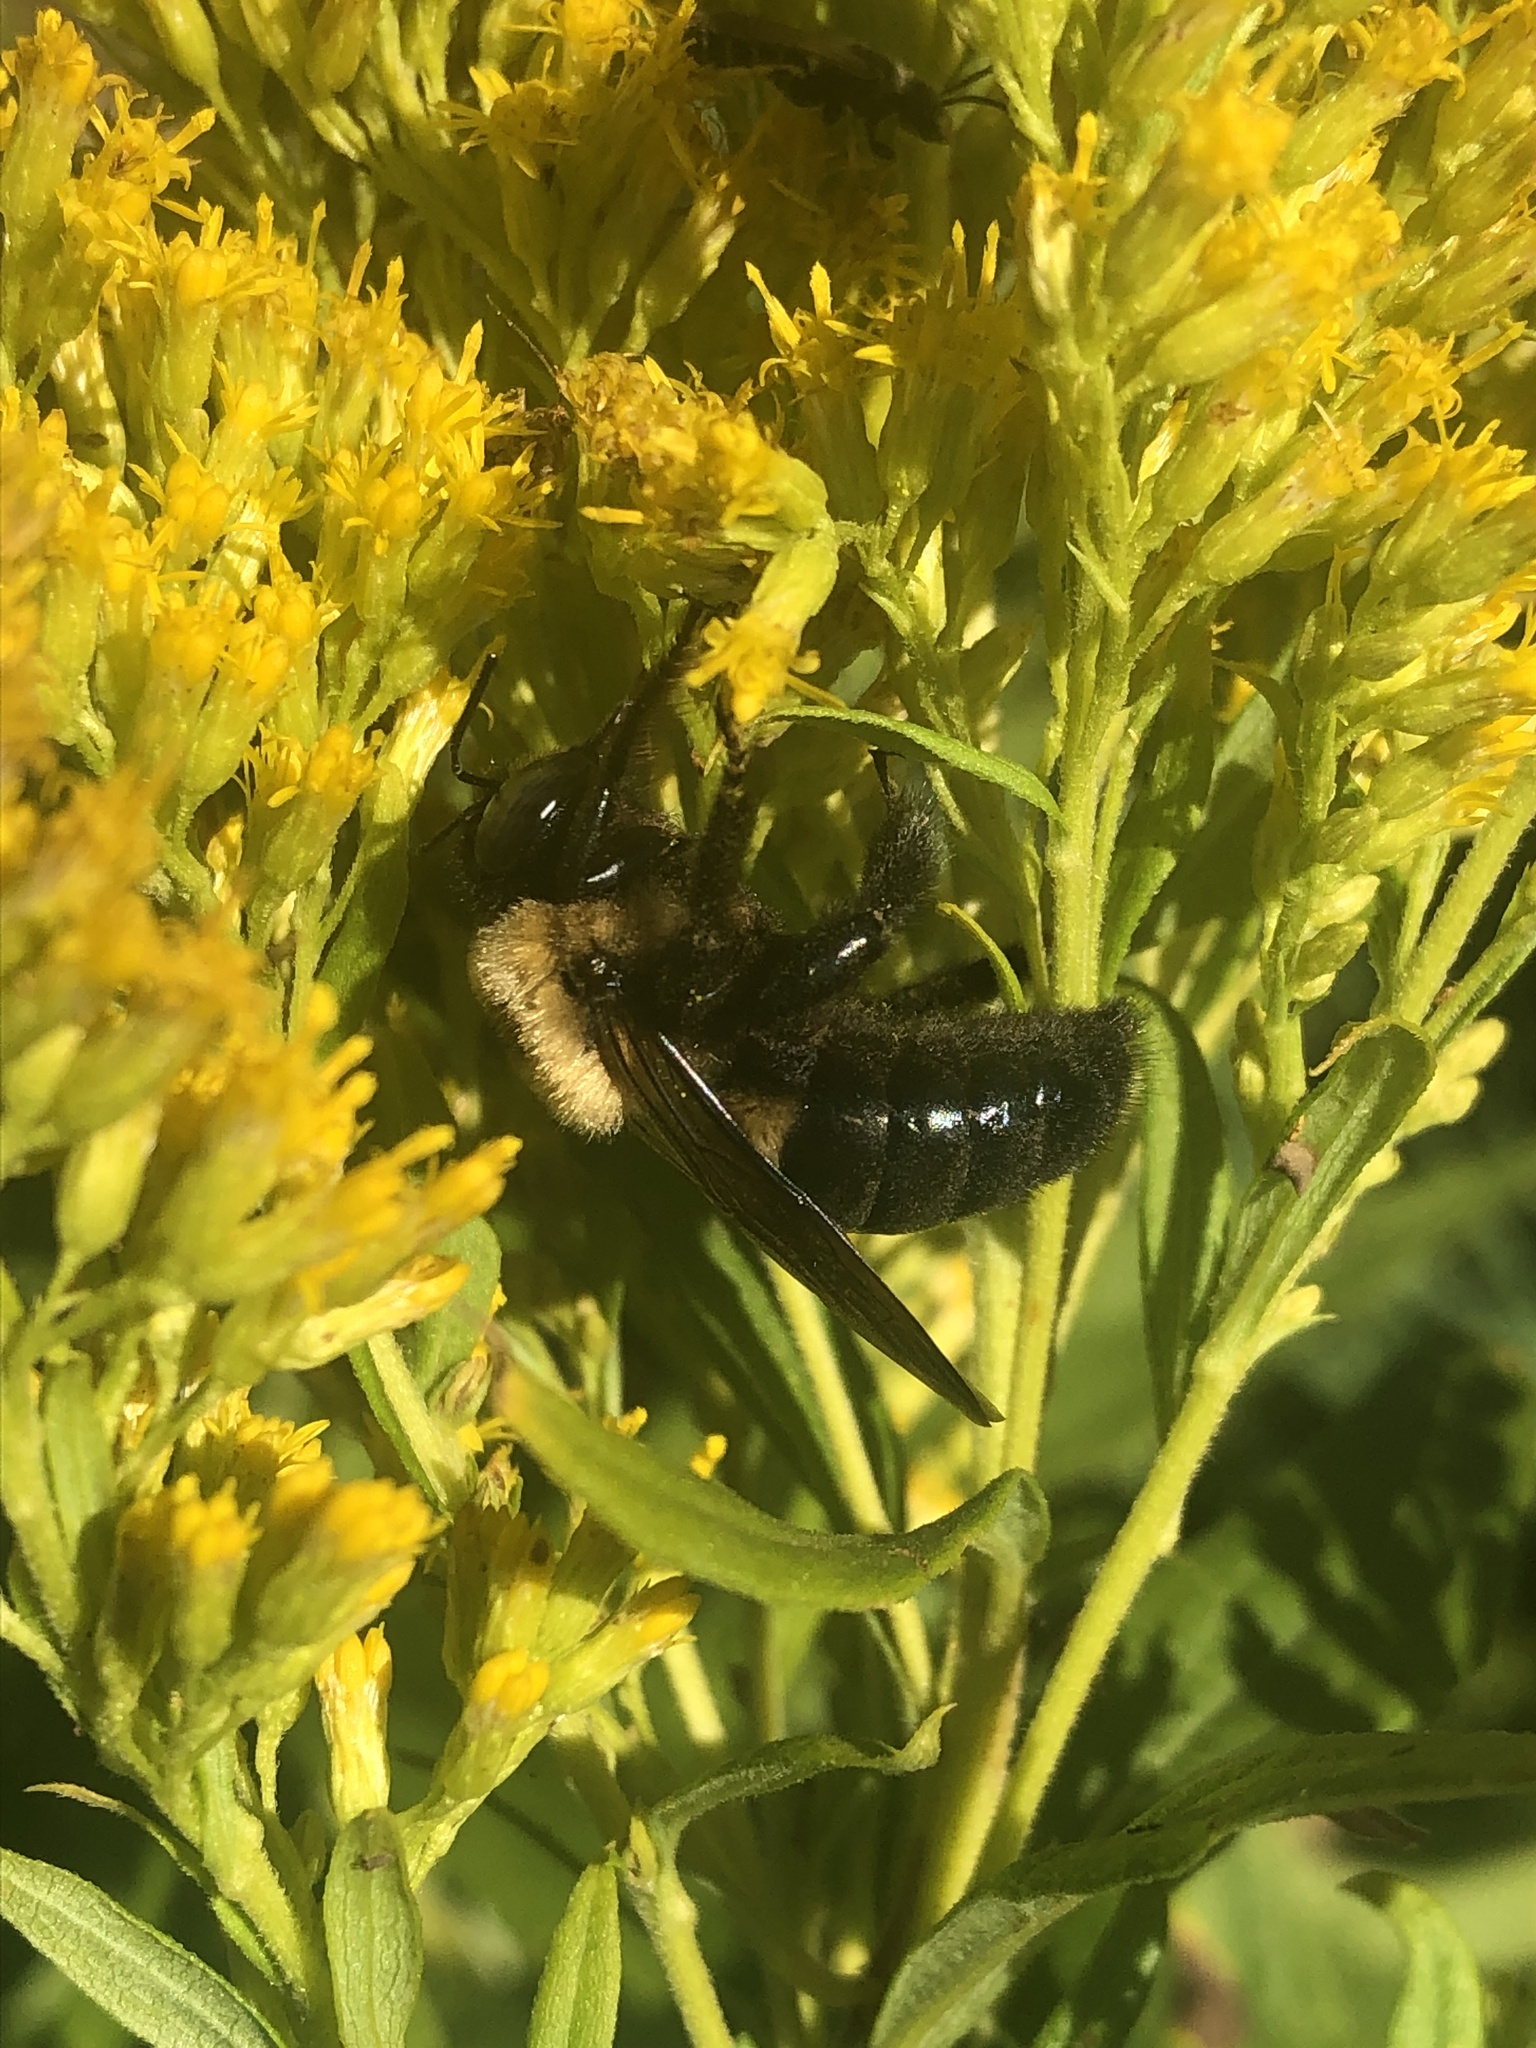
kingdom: Animalia
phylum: Arthropoda
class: Insecta
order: Hymenoptera
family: Apidae
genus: Xylocopa
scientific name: Xylocopa virginica
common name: Carpenter bee
